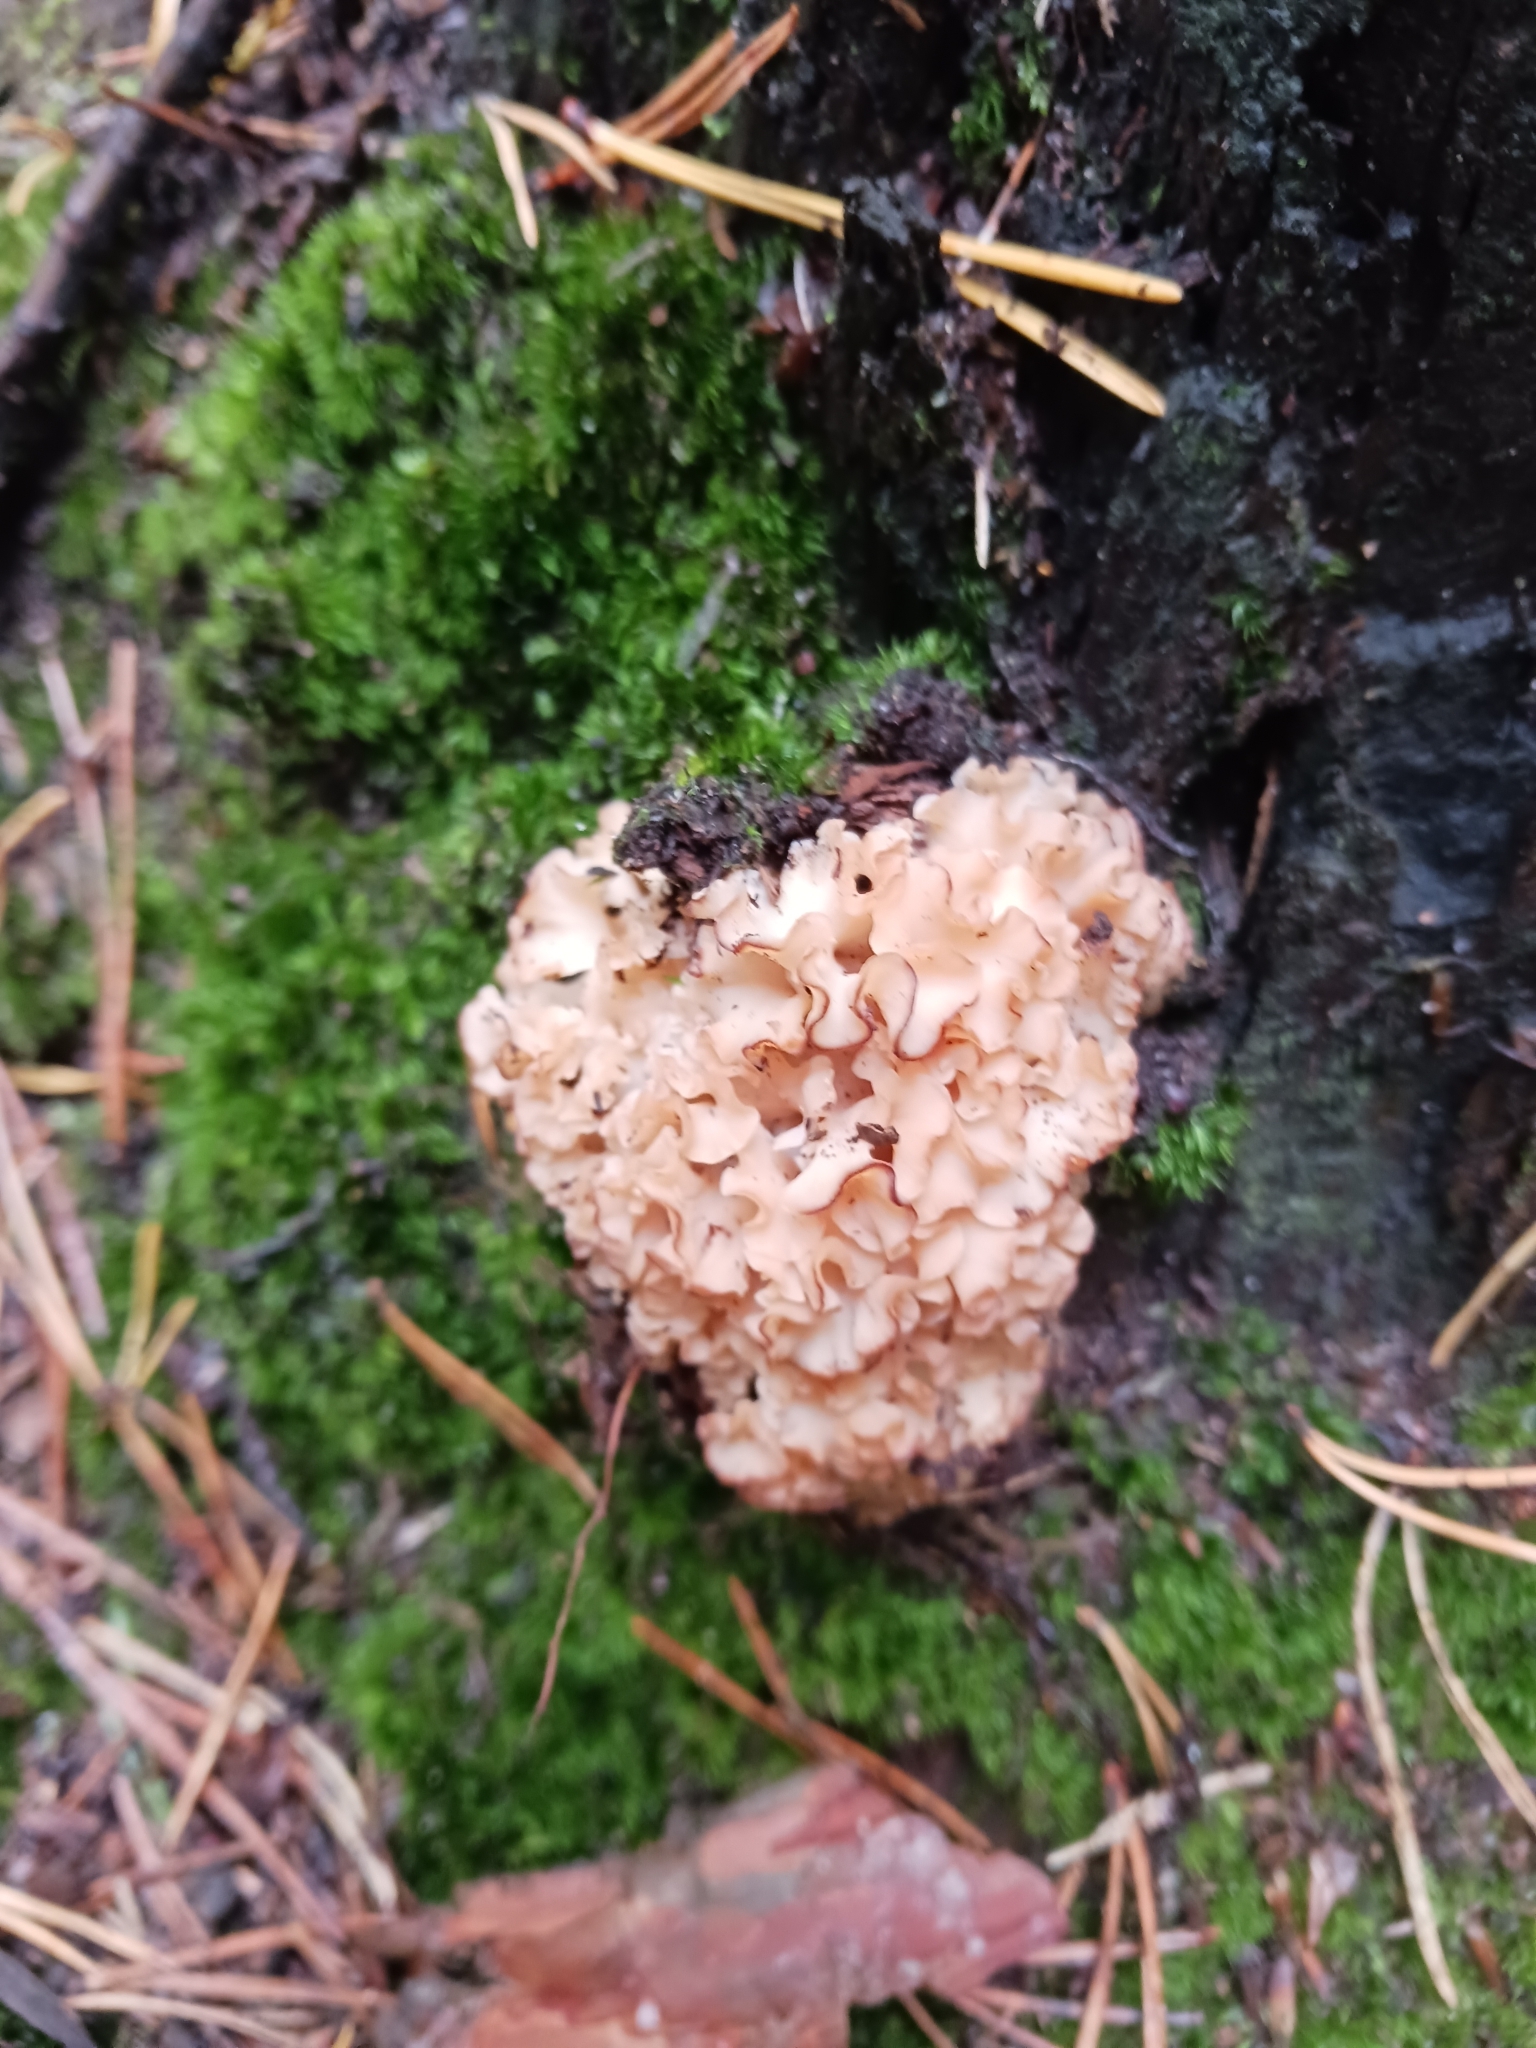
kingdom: Fungi
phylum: Basidiomycota
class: Agaricomycetes
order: Polyporales
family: Sparassidaceae
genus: Sparassis
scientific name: Sparassis crispa
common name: Brain fungus
